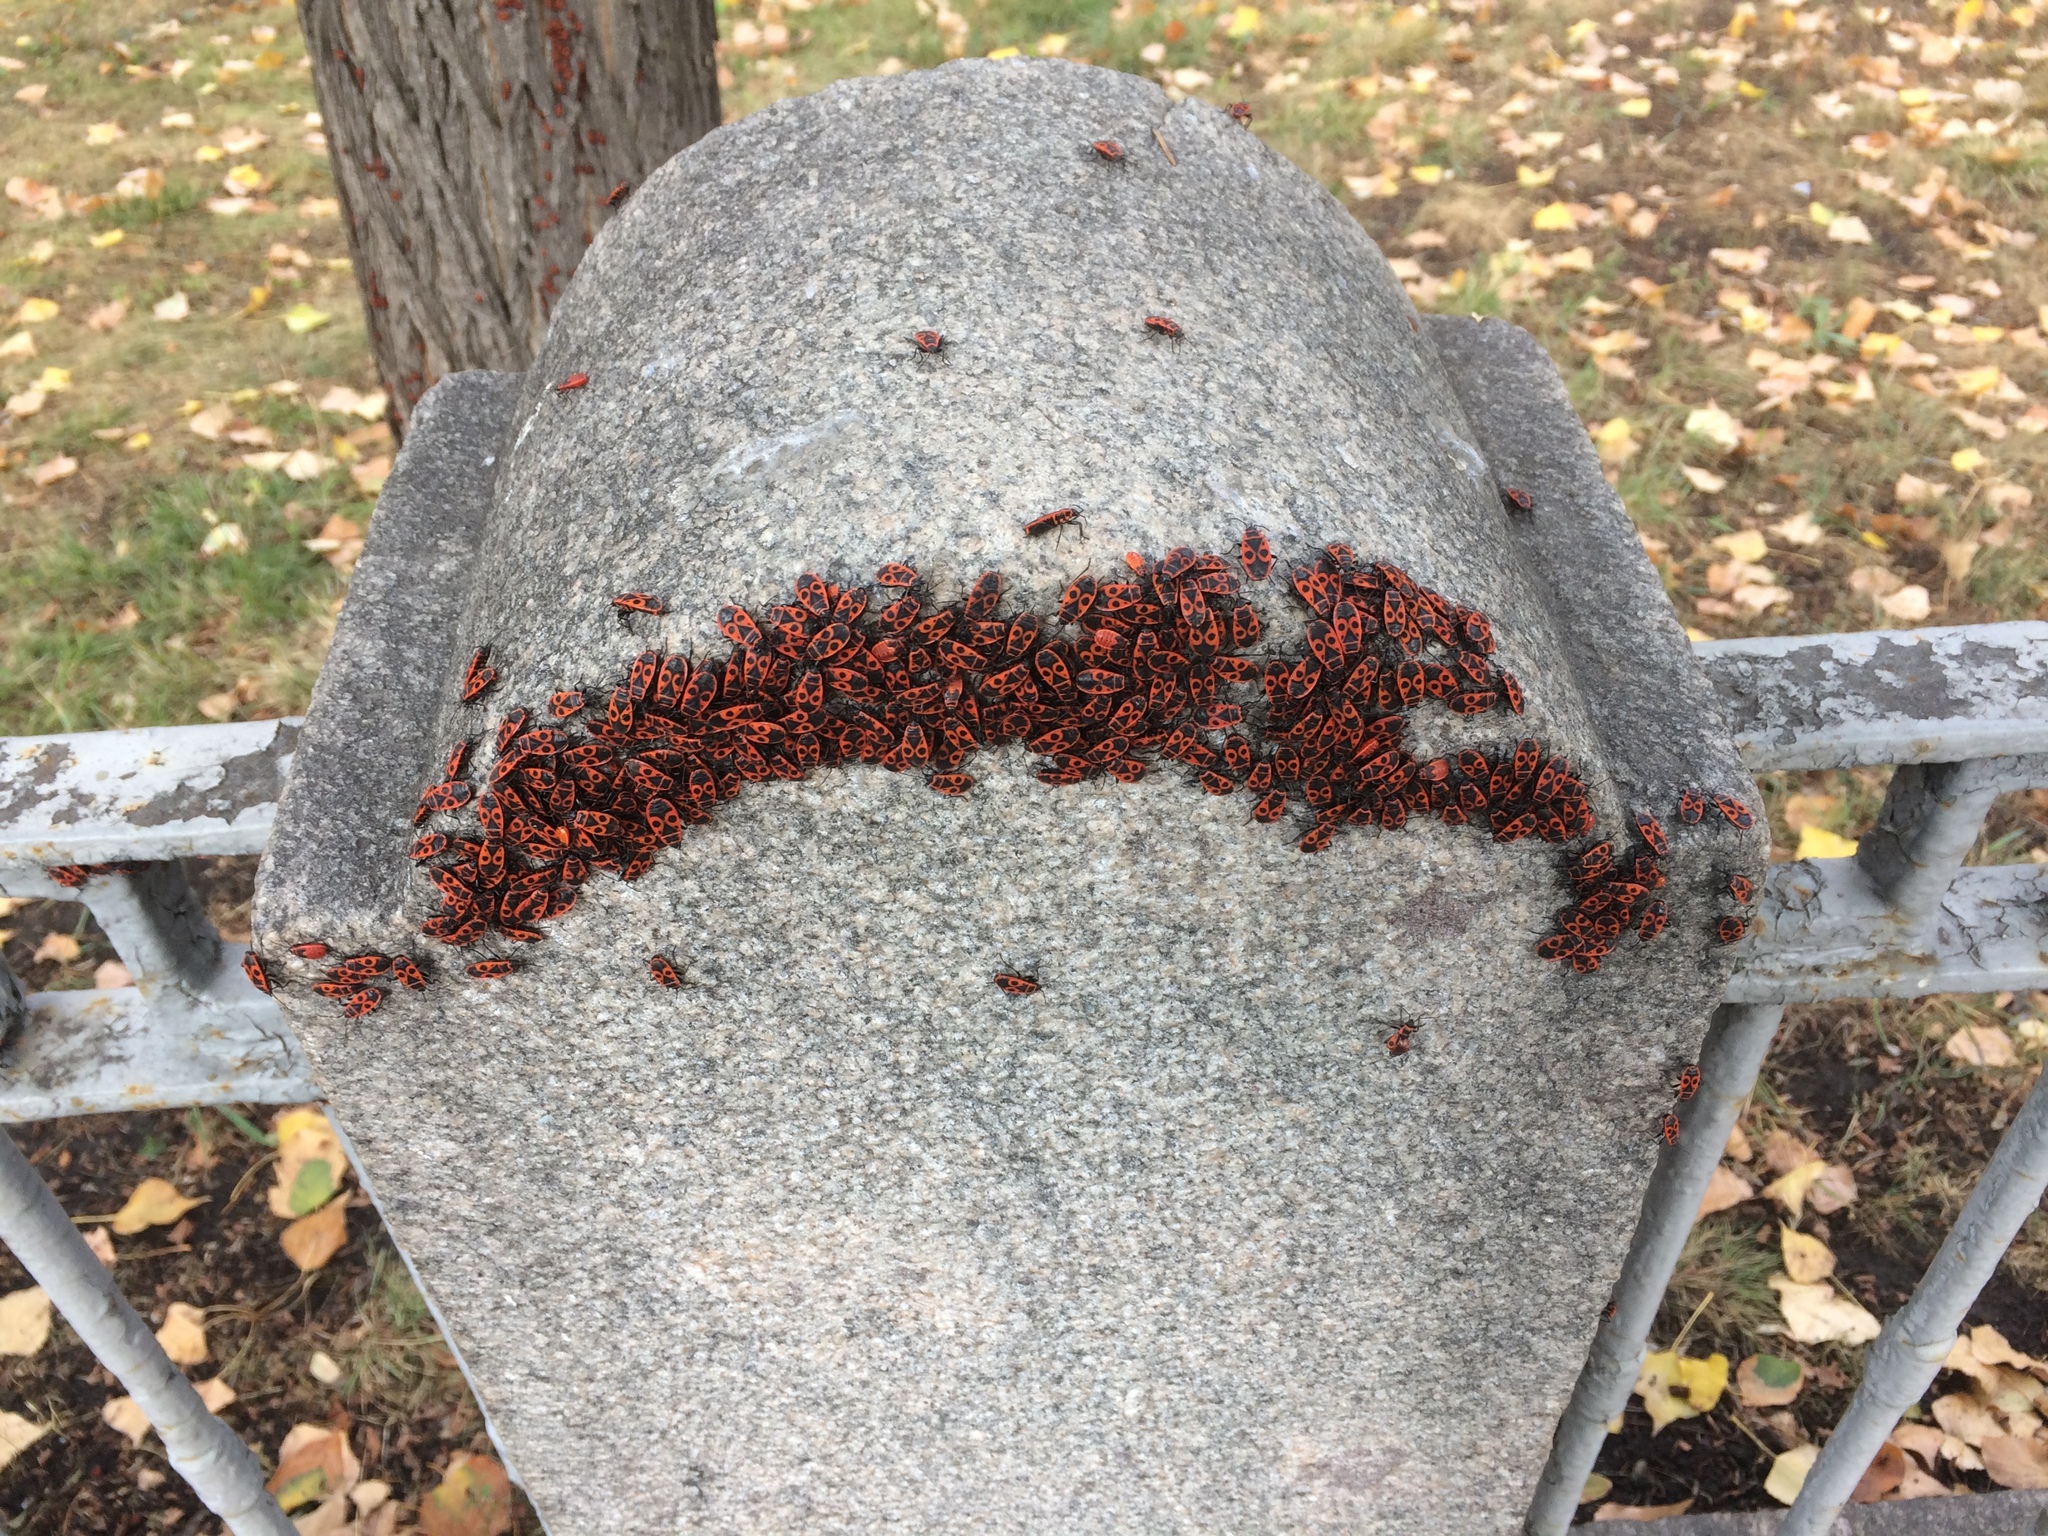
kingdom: Animalia
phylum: Arthropoda
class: Insecta
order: Hemiptera
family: Pyrrhocoridae
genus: Pyrrhocoris
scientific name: Pyrrhocoris apterus
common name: Firebug
